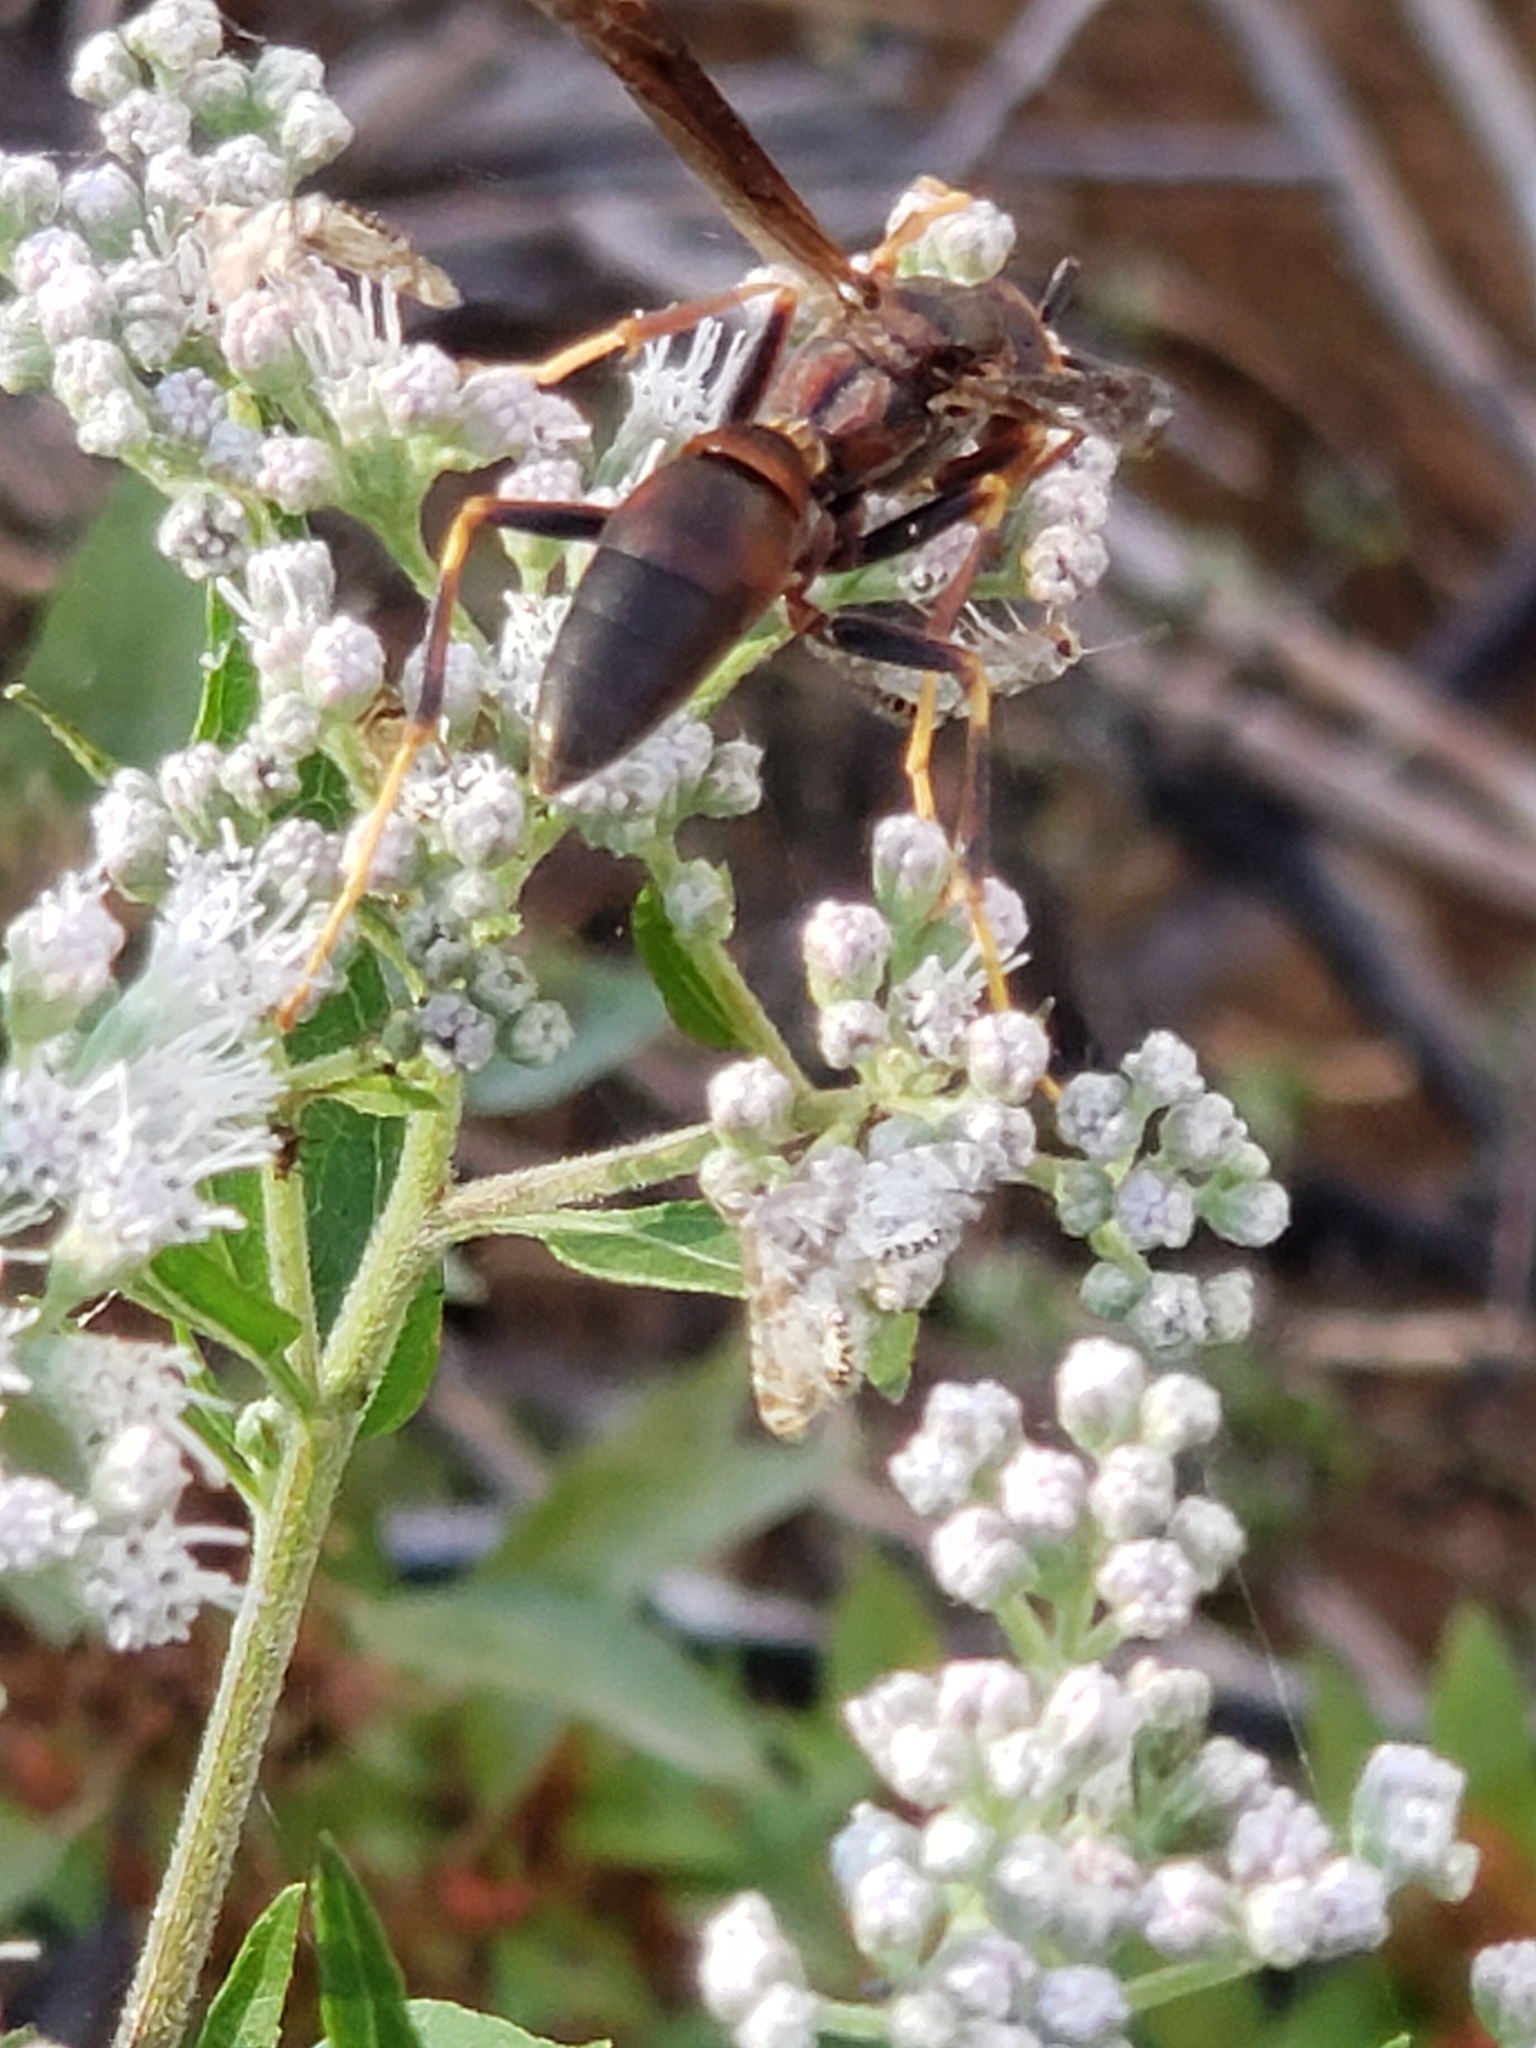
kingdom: Animalia
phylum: Arthropoda
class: Insecta
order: Hymenoptera
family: Eumenidae
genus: Polistes
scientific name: Polistes fuscatus
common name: Dark paper wasp
